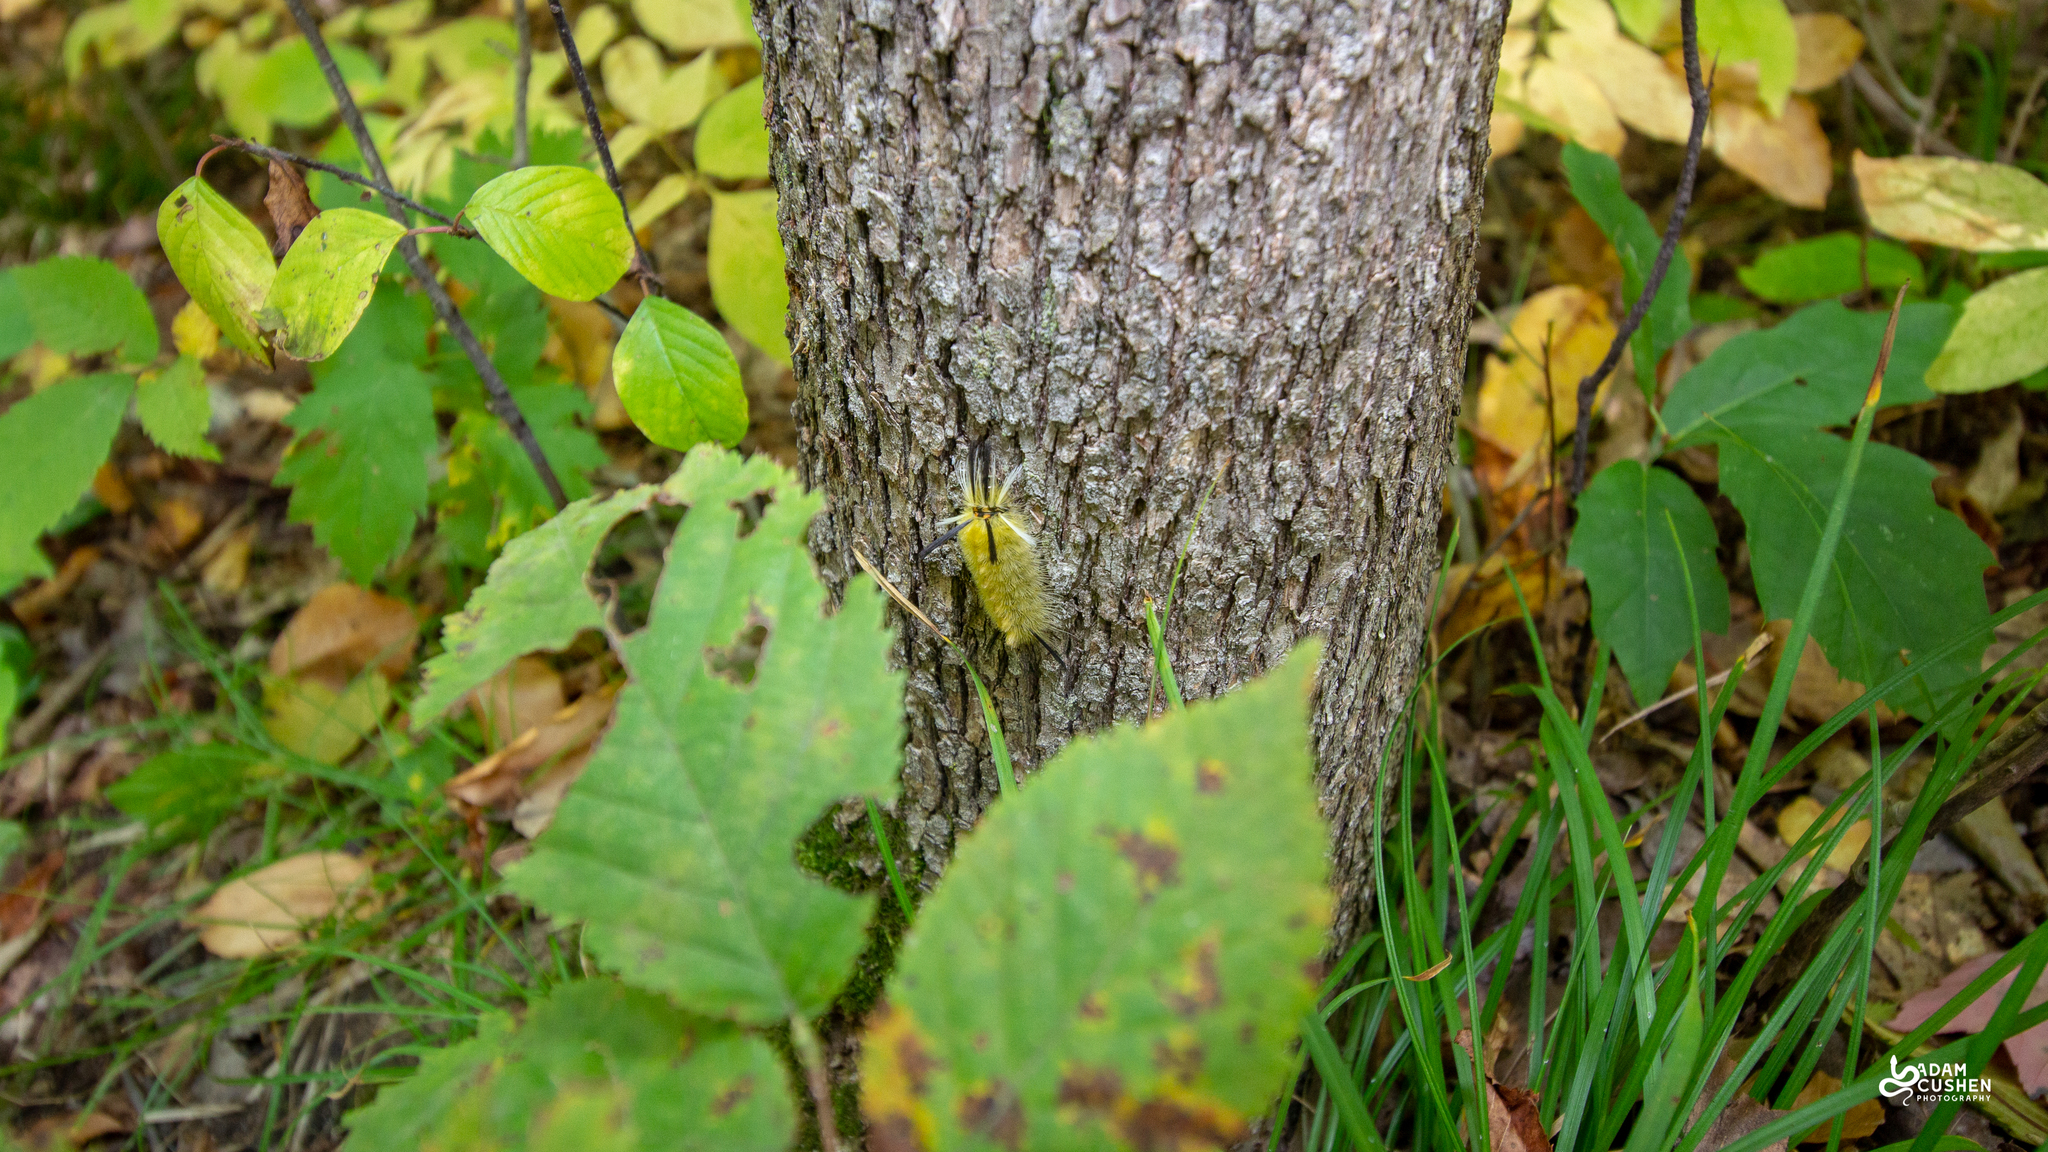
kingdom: Animalia
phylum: Arthropoda
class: Insecta
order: Lepidoptera
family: Erebidae
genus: Halysidota
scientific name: Halysidota tessellaris
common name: Banded tussock moth
